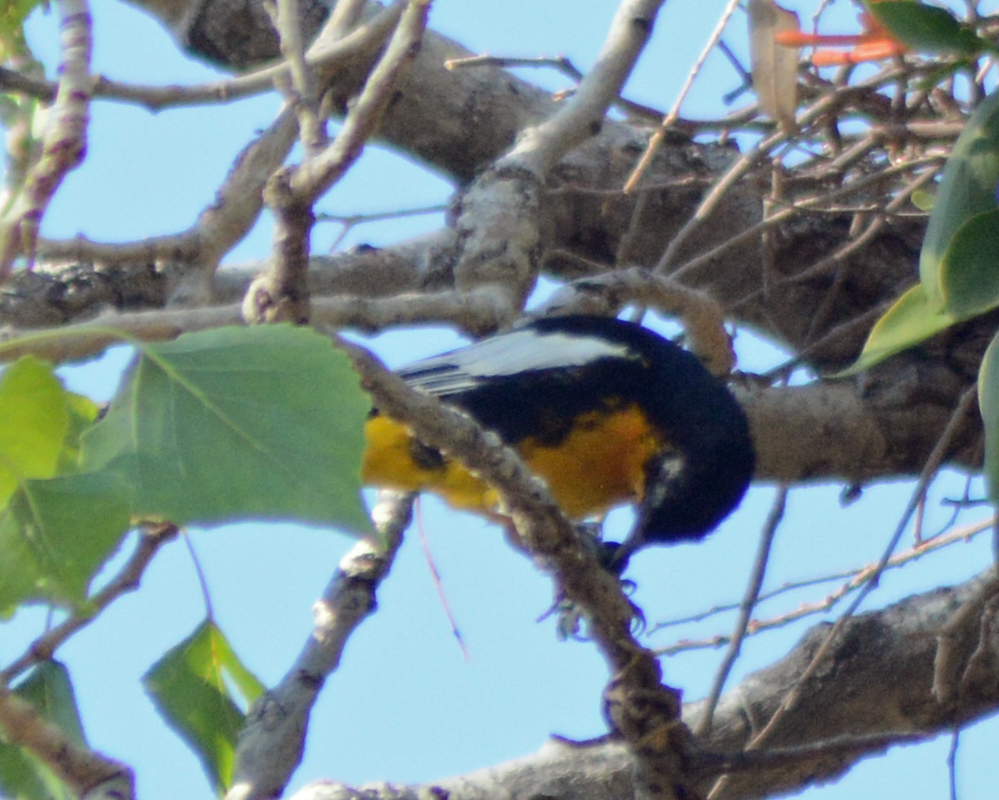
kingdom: Animalia
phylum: Chordata
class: Aves
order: Passeriformes
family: Icteridae
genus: Icterus
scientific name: Icterus abeillei
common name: Black-backed oriole
